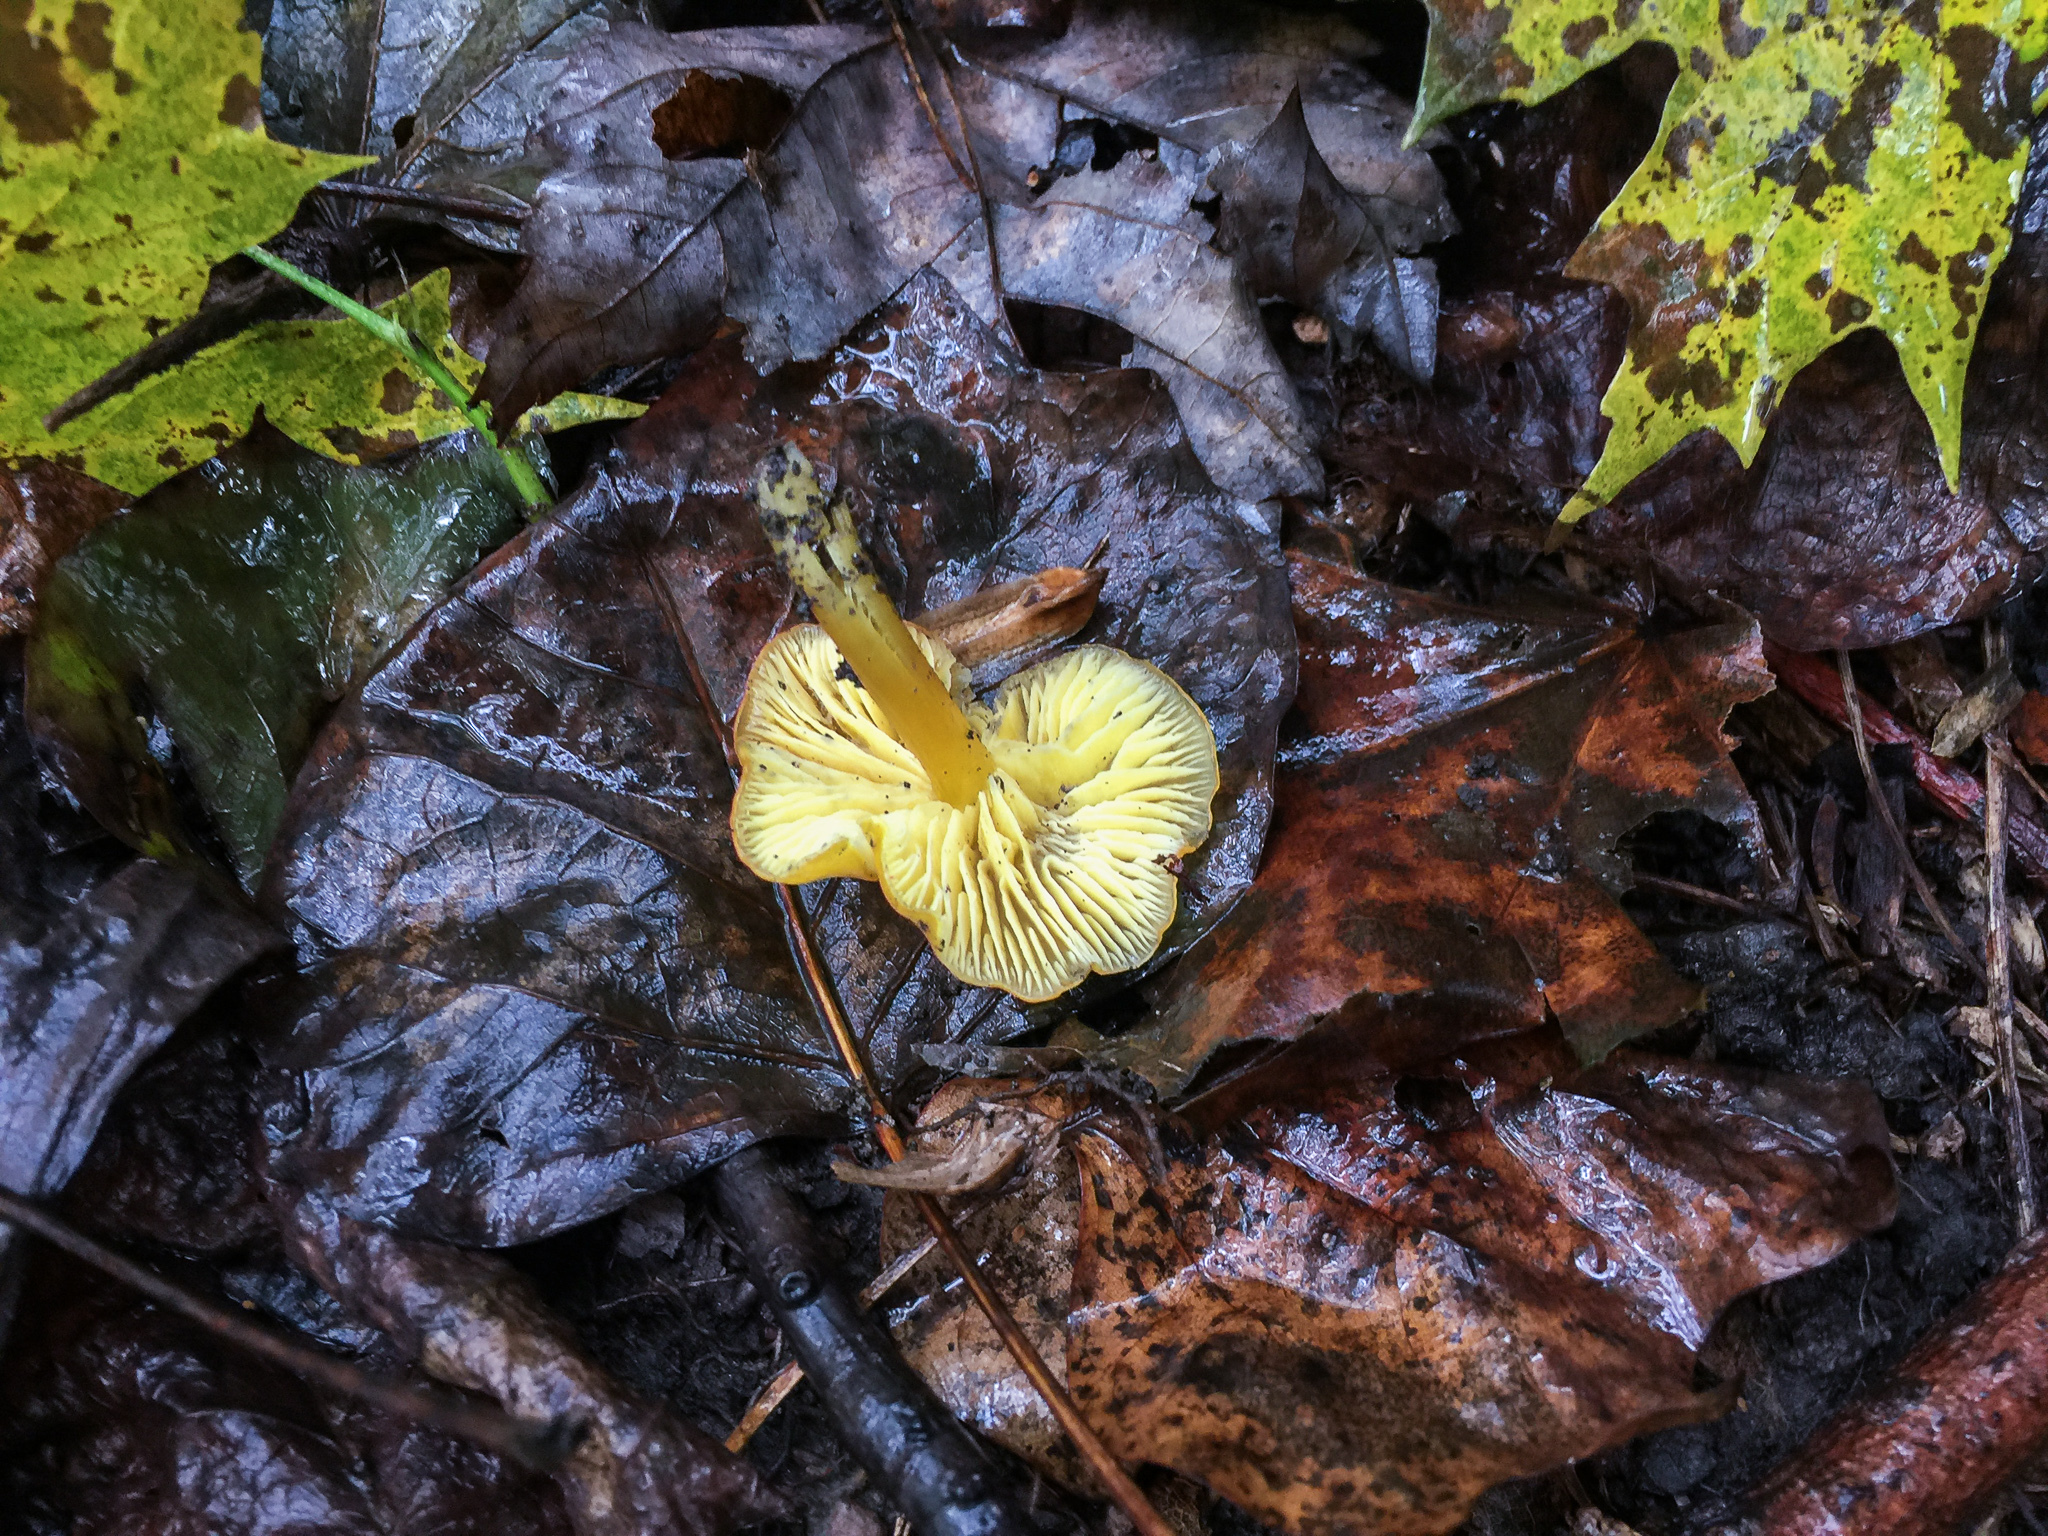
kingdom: Fungi
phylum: Basidiomycota
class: Agaricomycetes
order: Agaricales
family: Hygrophoraceae
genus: Hygrocybe
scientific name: Hygrocybe flavescens
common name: Golden waxy cap
